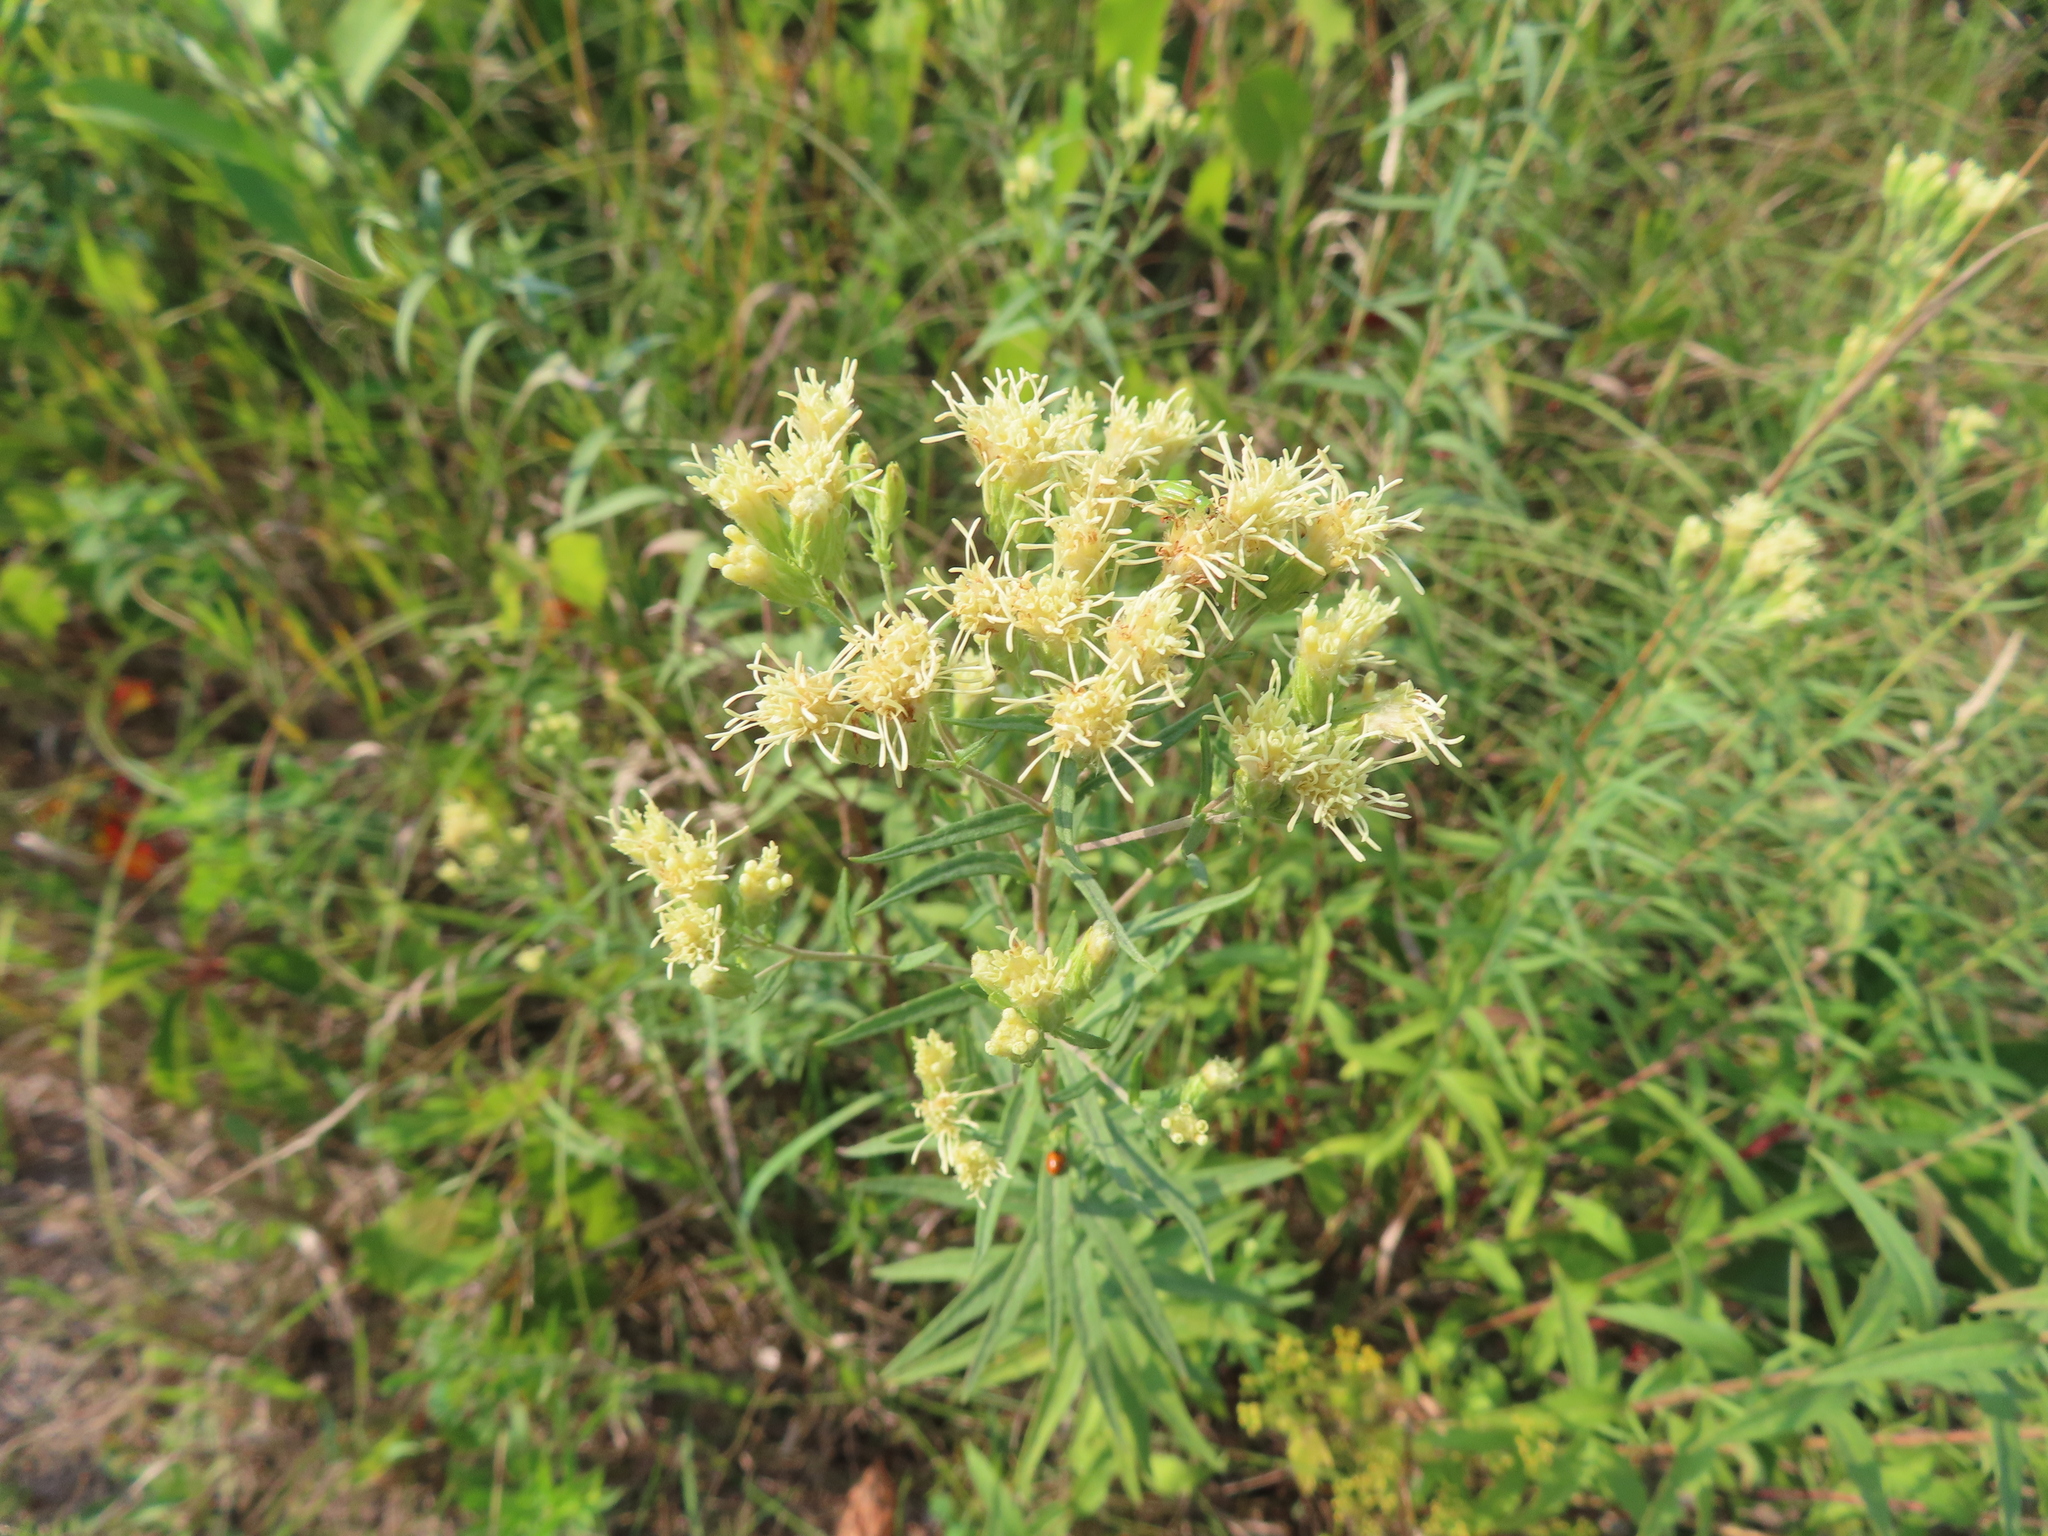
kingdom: Plantae
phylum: Tracheophyta
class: Magnoliopsida
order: Asterales
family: Asteraceae
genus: Brickellia
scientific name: Brickellia eupatorioides
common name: False boneset
